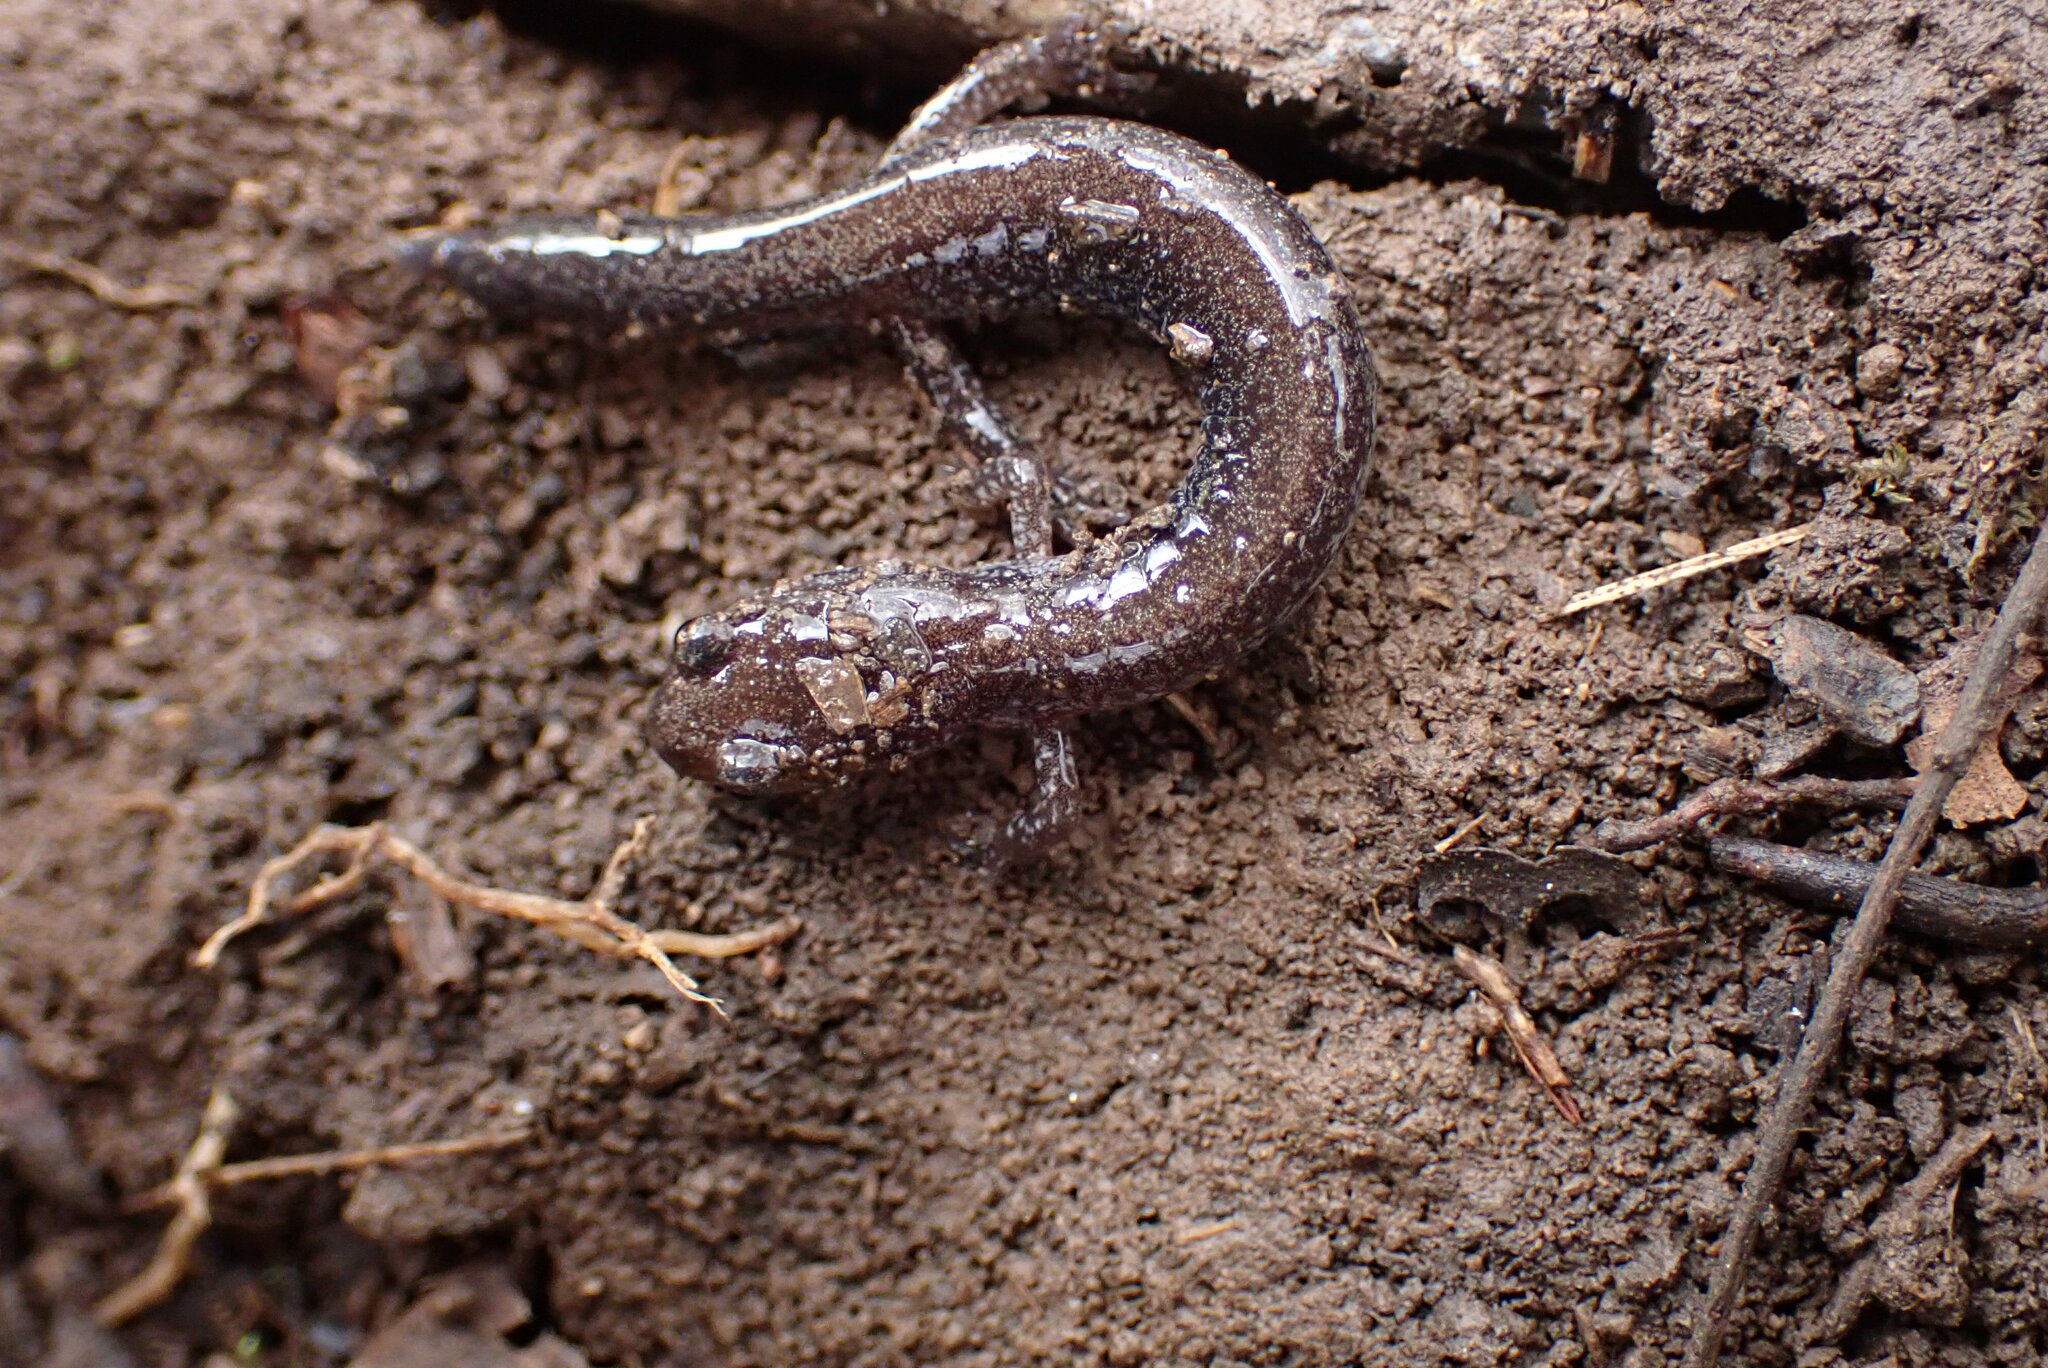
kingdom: Animalia
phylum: Chordata
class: Amphibia
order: Caudata
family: Plethodontidae
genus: Plethodon
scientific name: Plethodon cinereus
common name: Redback salamander
